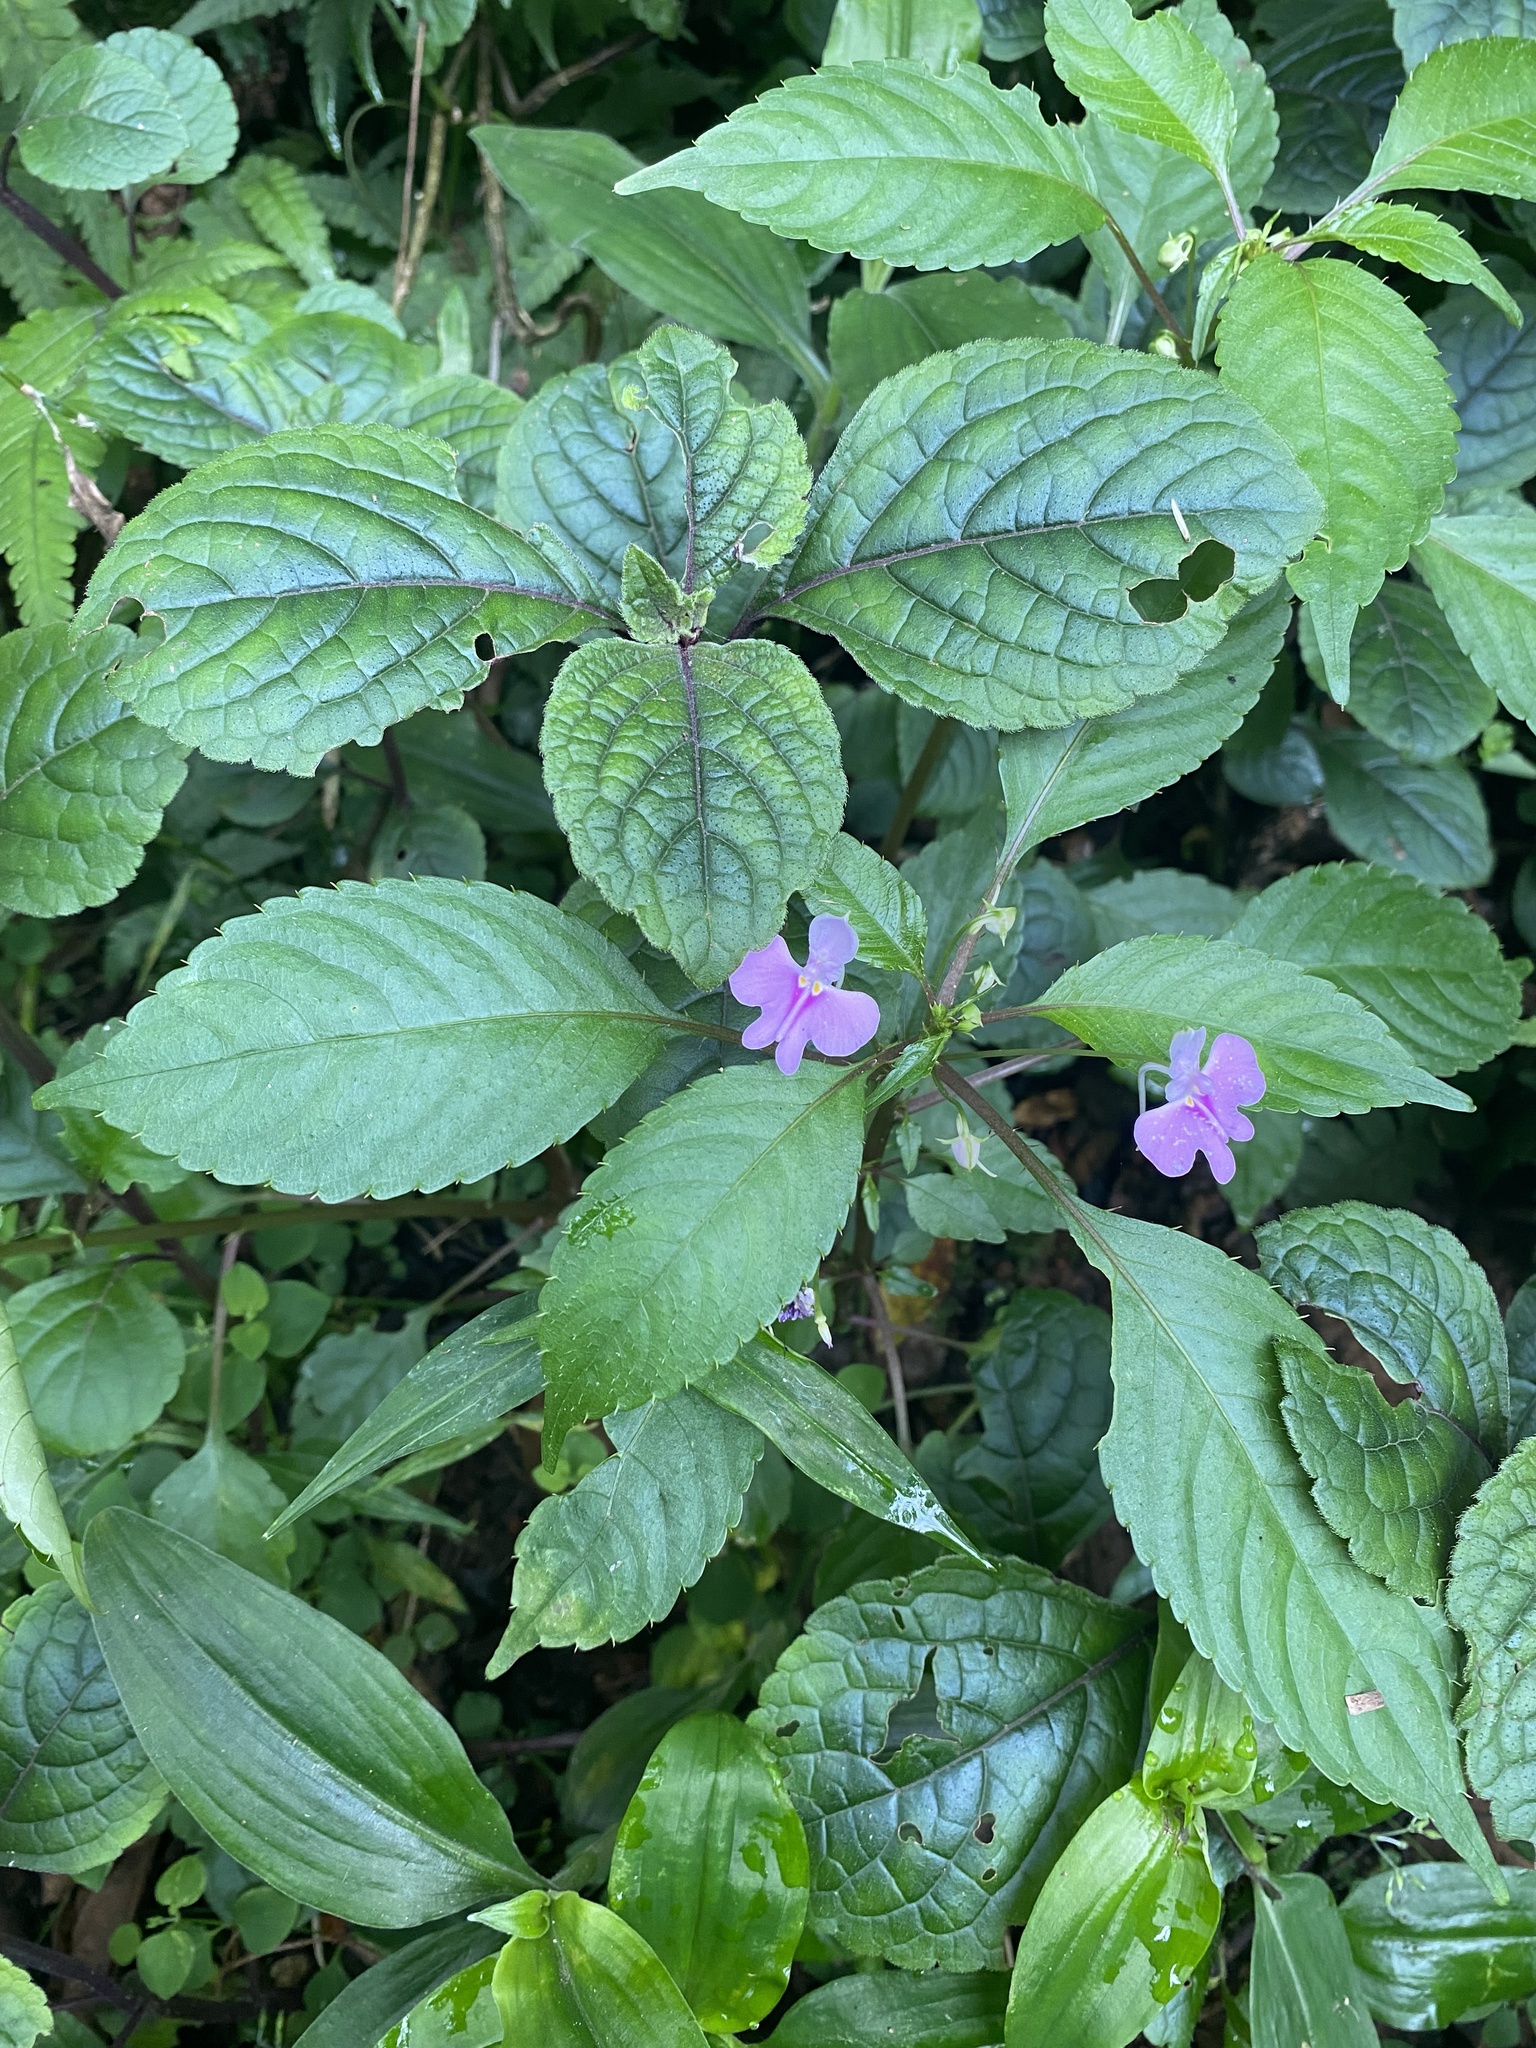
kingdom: Plantae
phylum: Tracheophyta
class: Magnoliopsida
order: Ericales
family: Balsaminaceae
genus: Impatiens
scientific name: Impatiens hochstetteri
